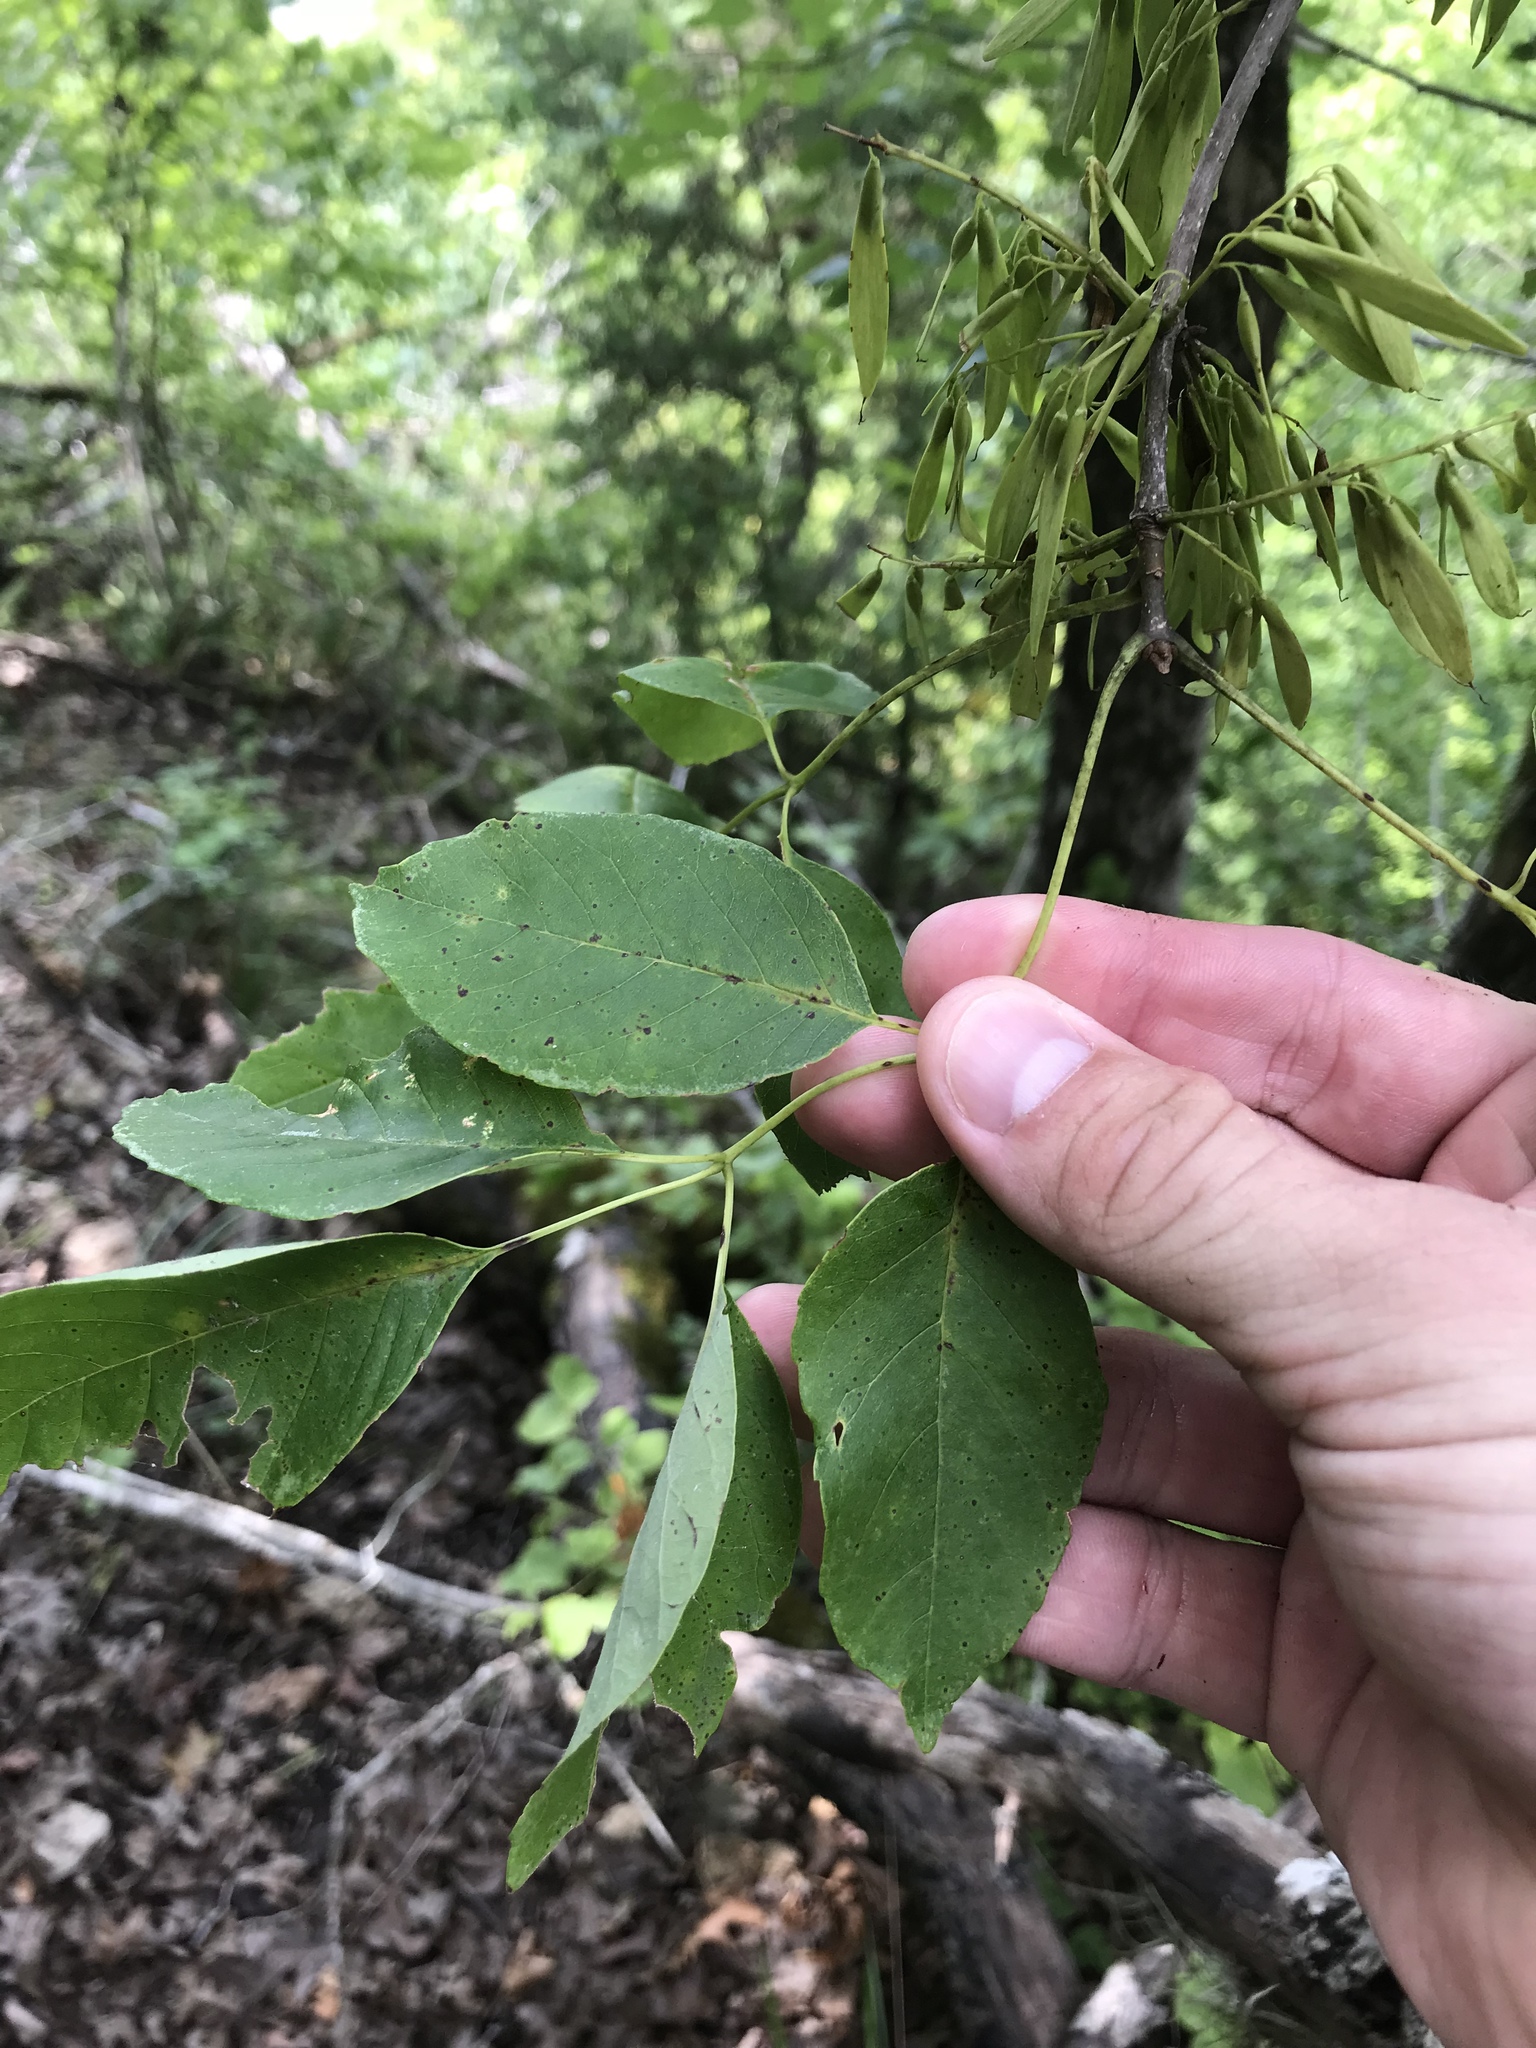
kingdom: Plantae
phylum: Tracheophyta
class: Magnoliopsida
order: Lamiales
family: Oleaceae
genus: Fraxinus
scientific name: Fraxinus albicans
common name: Texas ash
